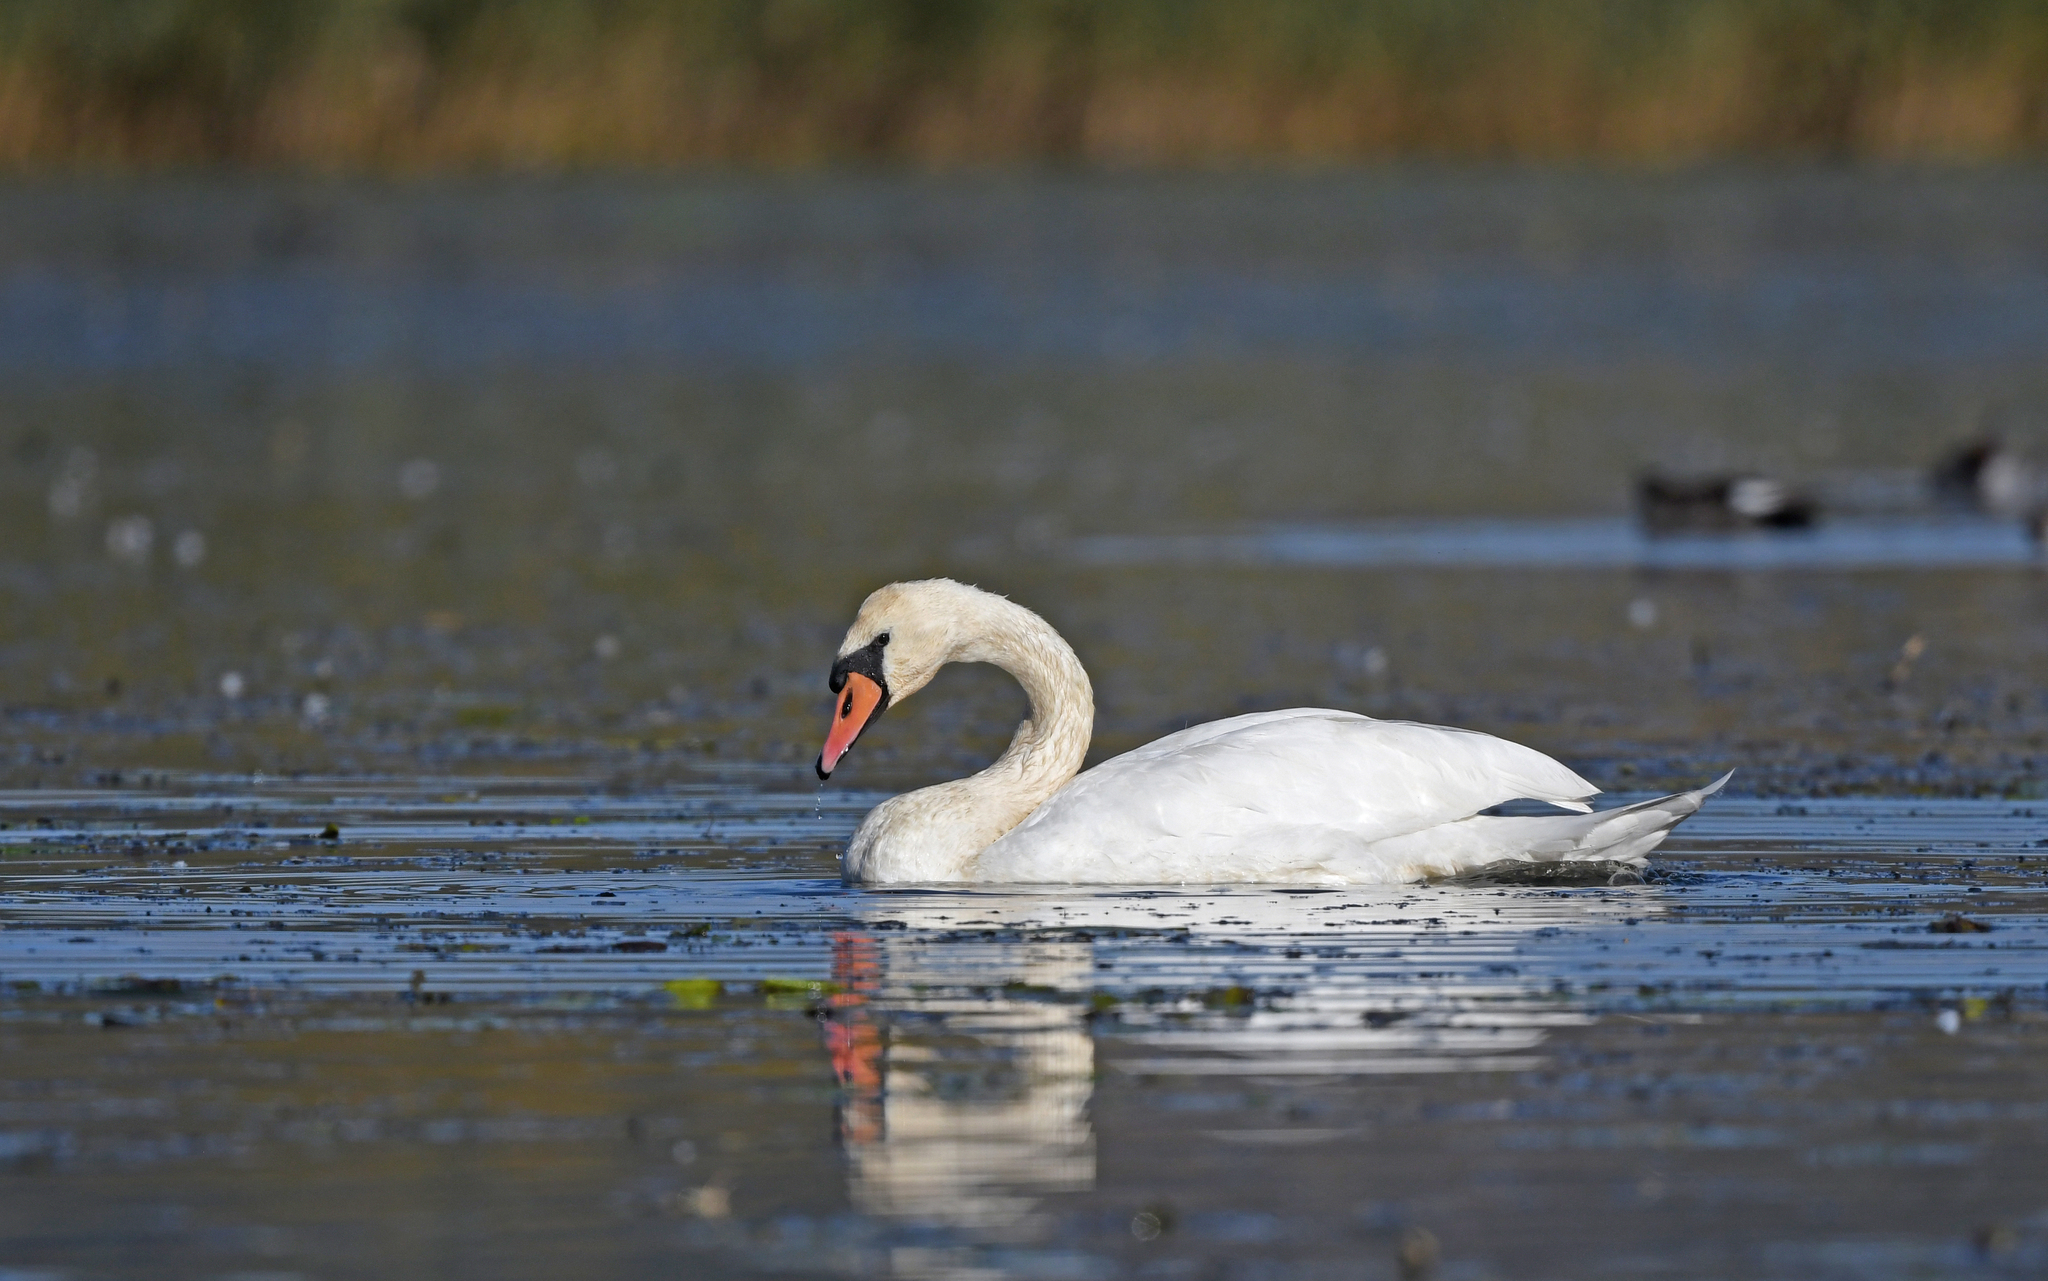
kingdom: Animalia
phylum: Chordata
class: Aves
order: Anseriformes
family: Anatidae
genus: Cygnus
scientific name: Cygnus olor
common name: Mute swan
